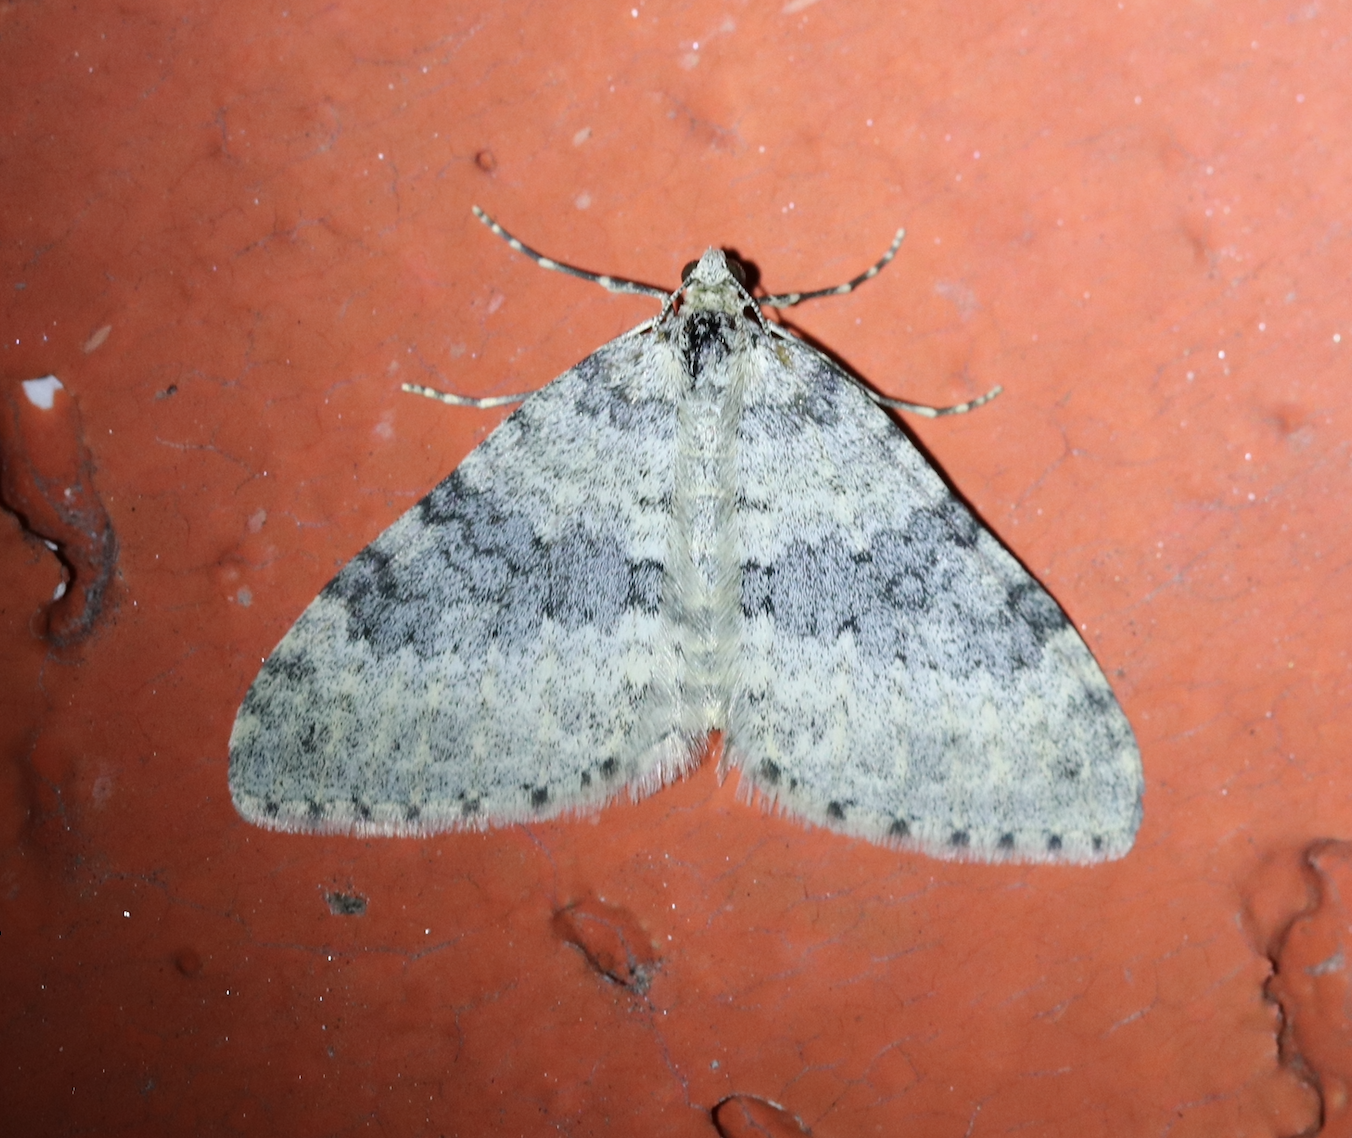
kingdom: Animalia
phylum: Arthropoda
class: Insecta
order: Lepidoptera
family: Geometridae
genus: Entephria
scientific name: Entephria cyanata
